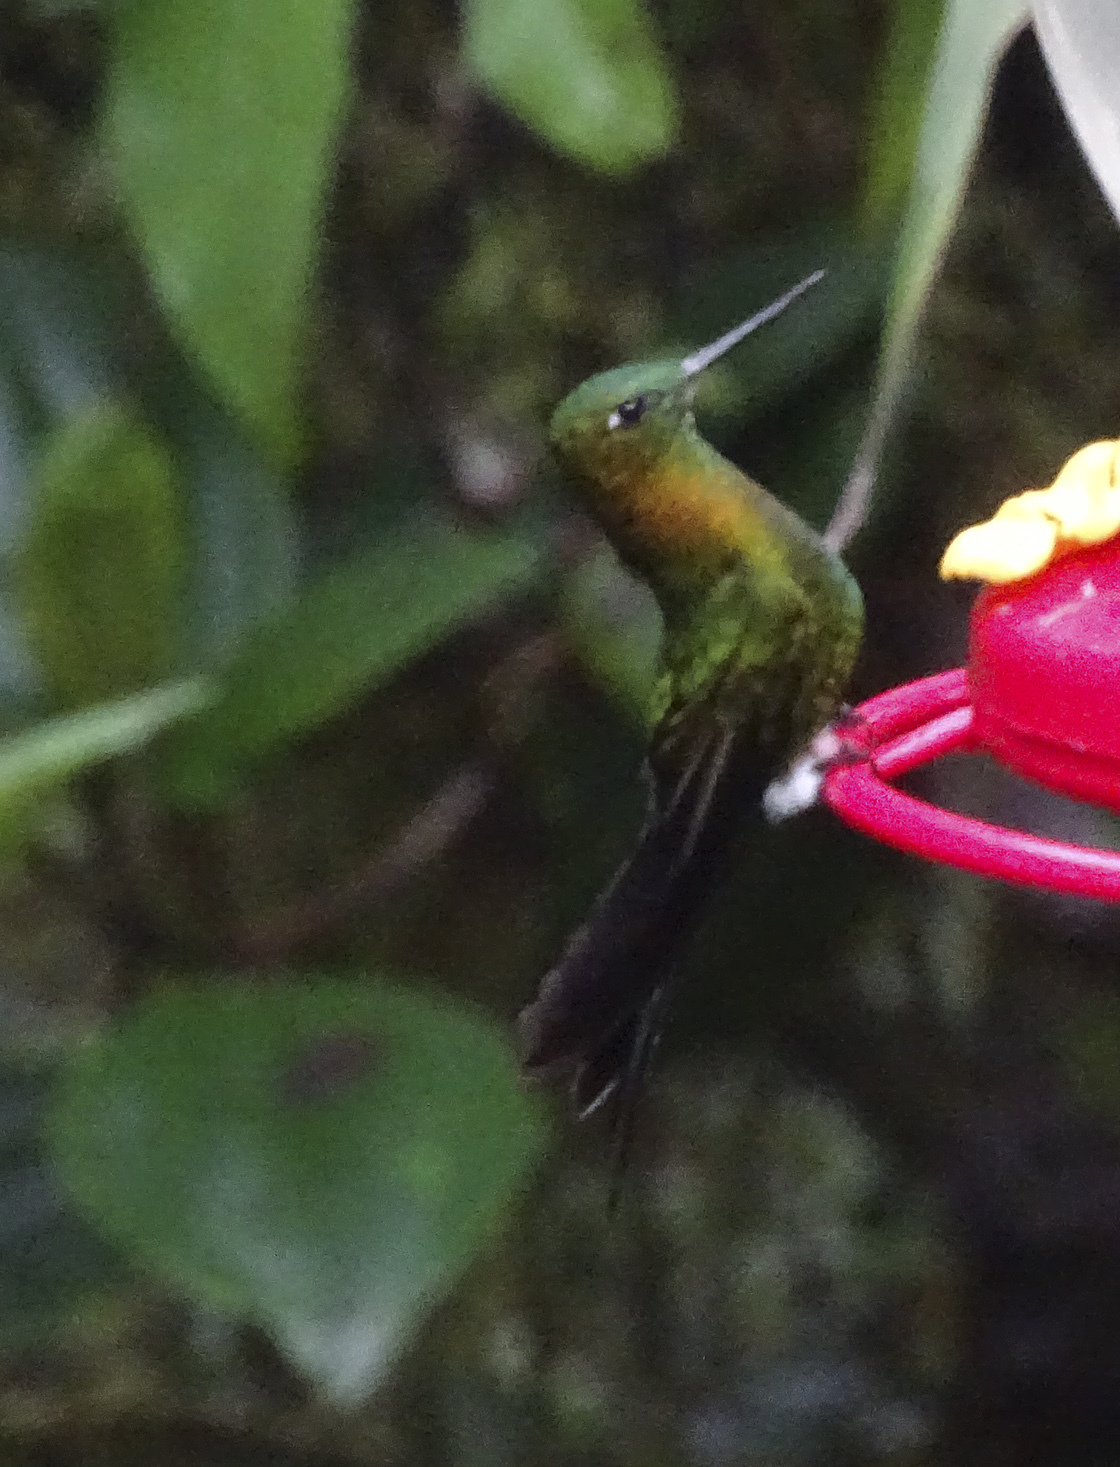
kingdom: Animalia
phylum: Chordata
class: Aves
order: Apodiformes
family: Trochilidae
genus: Eriocnemis
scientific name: Eriocnemis mosquera
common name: Golden-breasted puffleg
